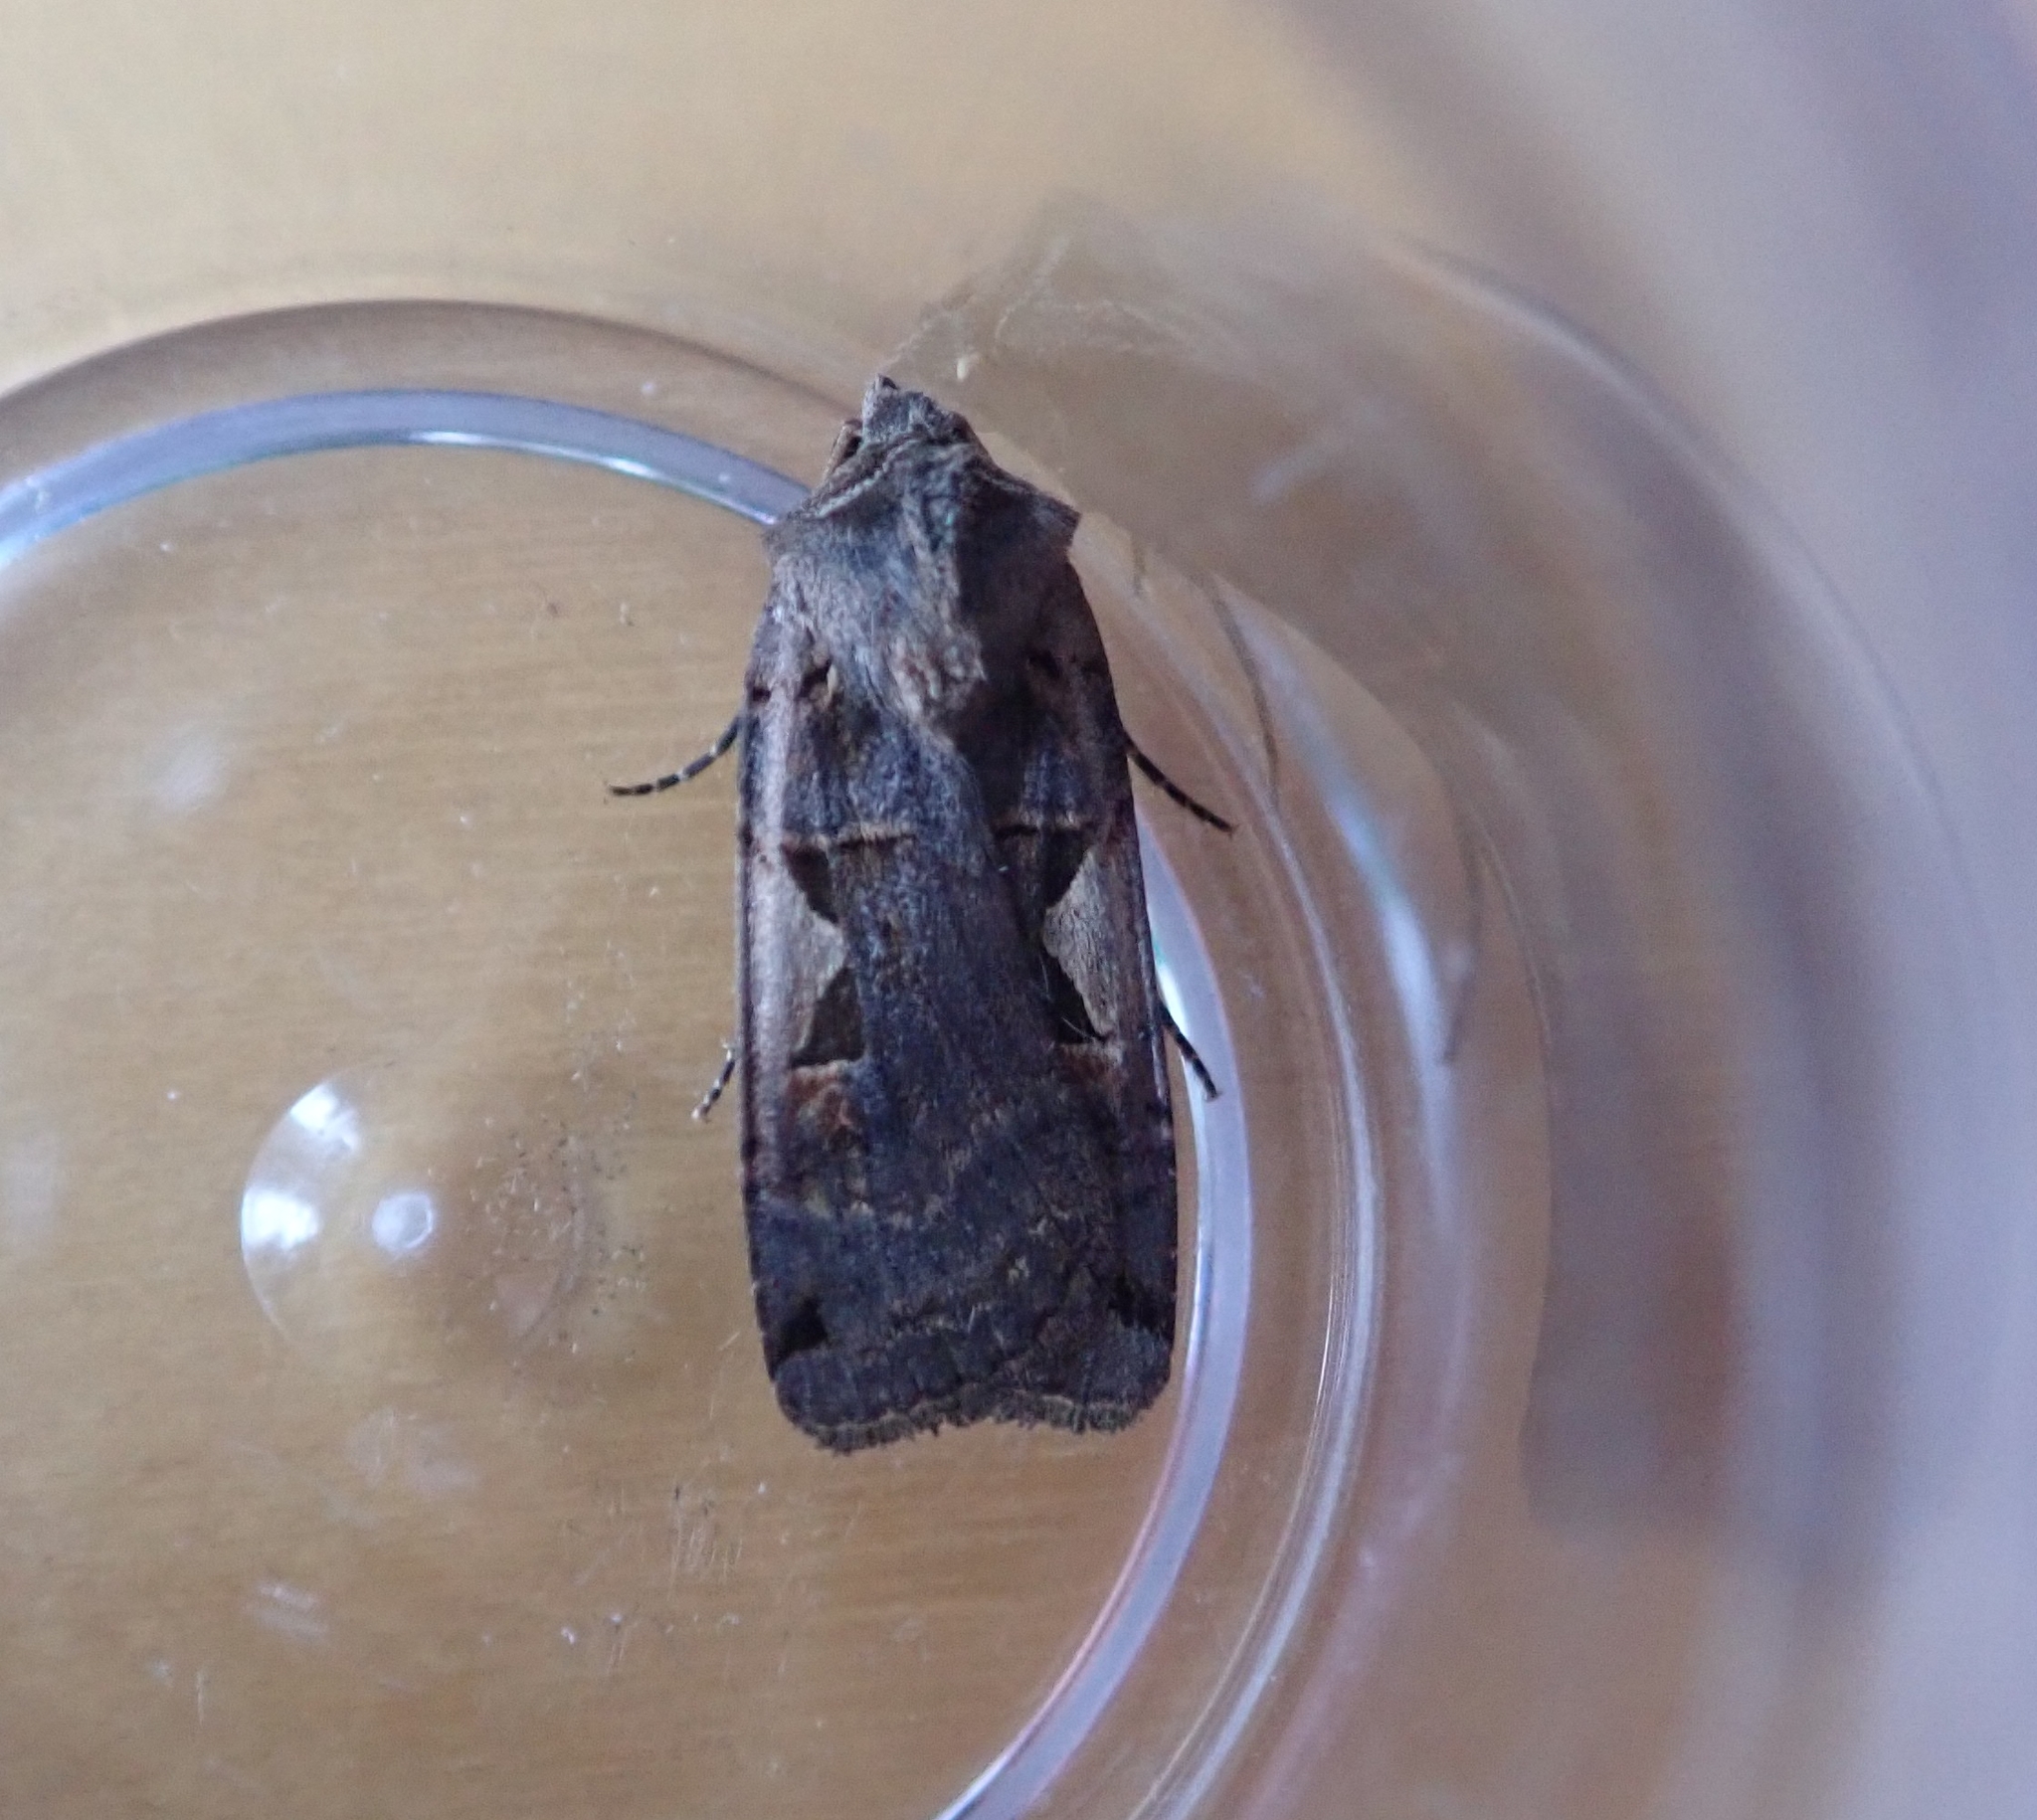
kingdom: Animalia
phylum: Arthropoda
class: Insecta
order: Lepidoptera
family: Noctuidae
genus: Xestia
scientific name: Xestia c-nigrum
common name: Setaceous hebrew character
